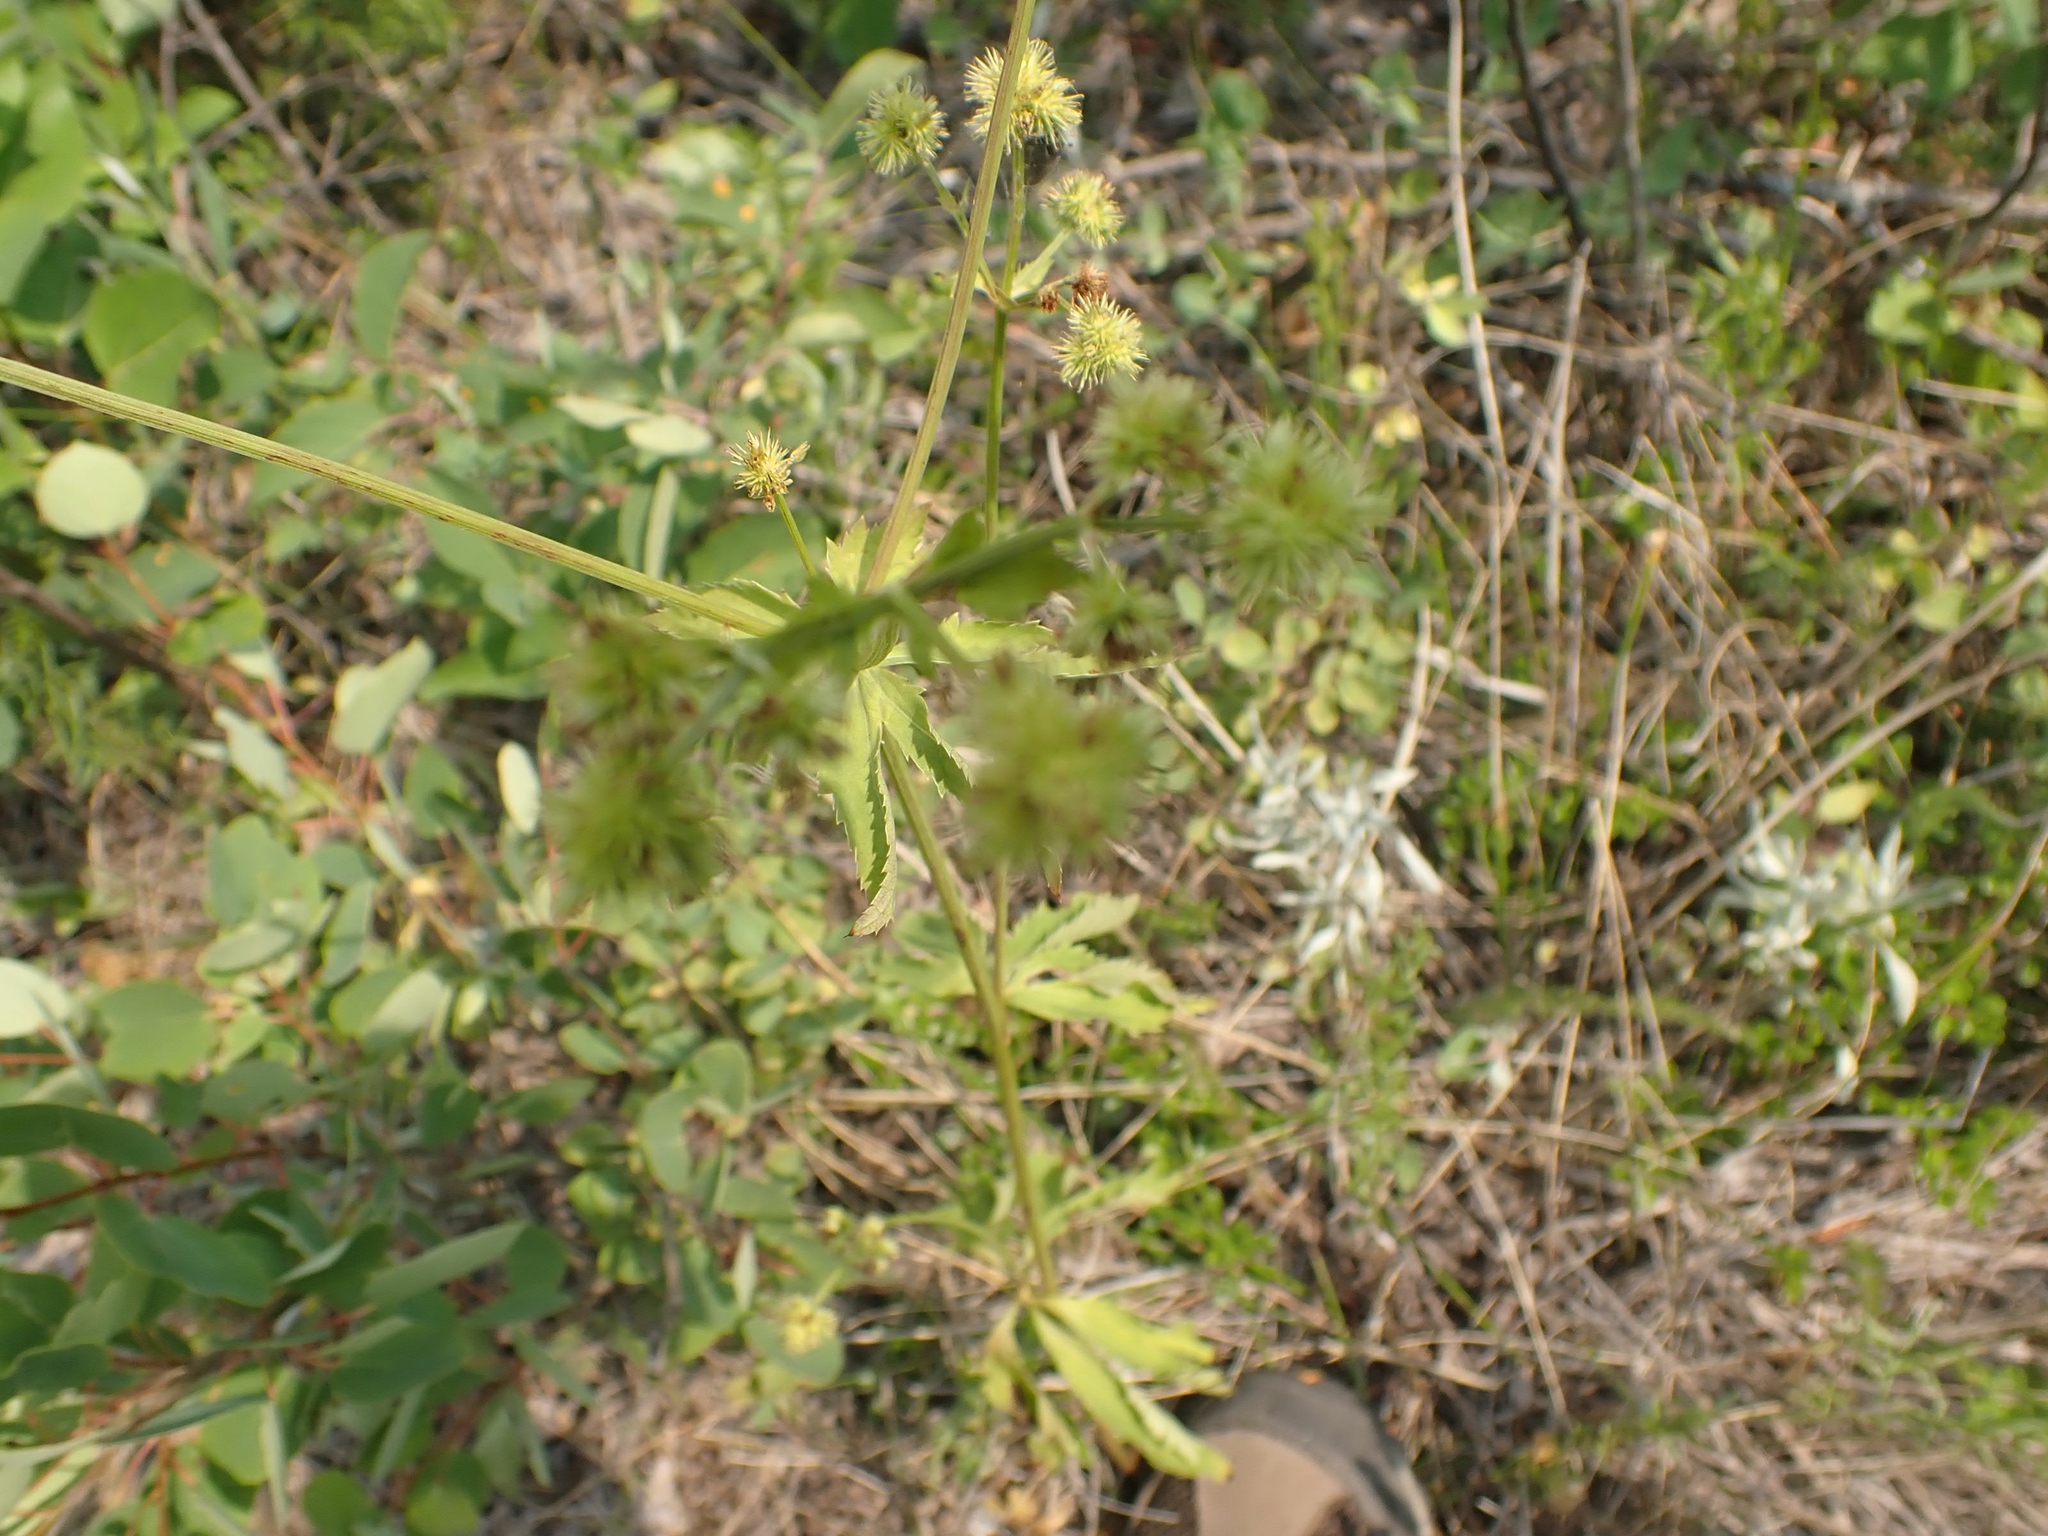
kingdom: Plantae
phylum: Tracheophyta
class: Magnoliopsida
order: Apiales
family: Apiaceae
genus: Sanicula
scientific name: Sanicula marilandica
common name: Black snakeroot
